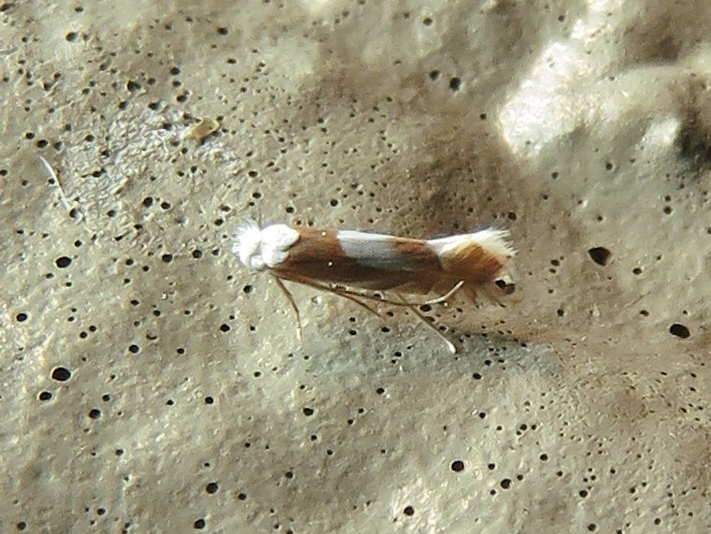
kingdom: Animalia
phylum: Arthropoda
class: Insecta
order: Lepidoptera
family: Gracillariidae
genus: Phyllonorycter
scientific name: Phyllonorycter fitchella
